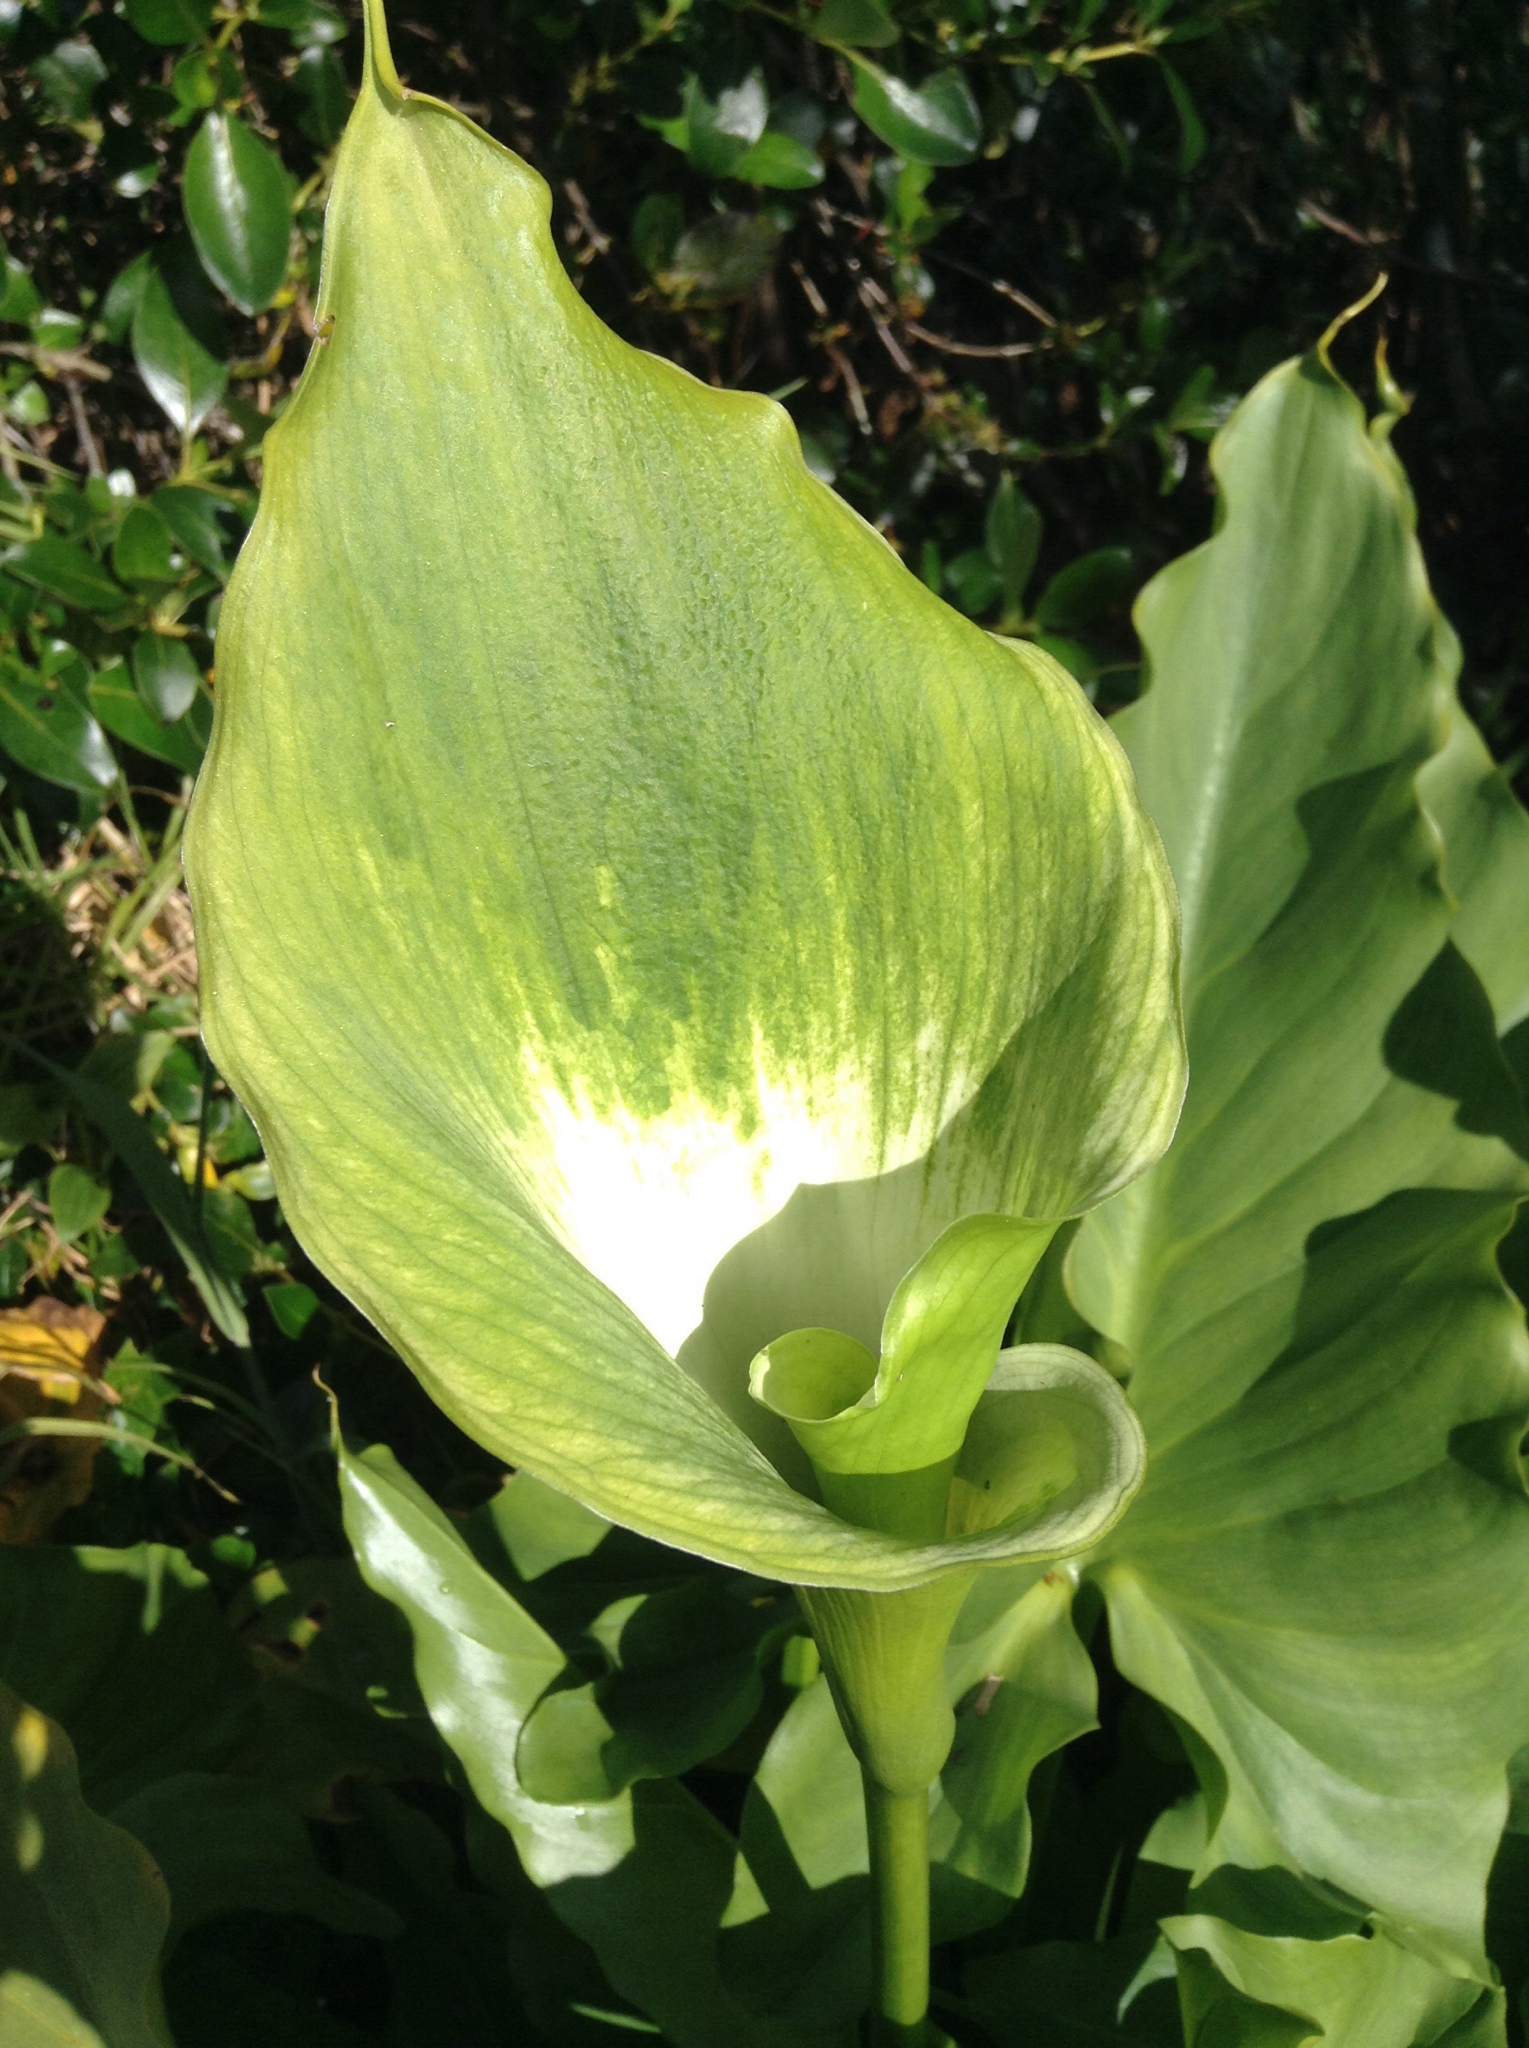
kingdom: Plantae
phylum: Tracheophyta
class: Liliopsida
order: Alismatales
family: Araceae
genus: Zantedeschia
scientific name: Zantedeschia aethiopica
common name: Altar-lily
